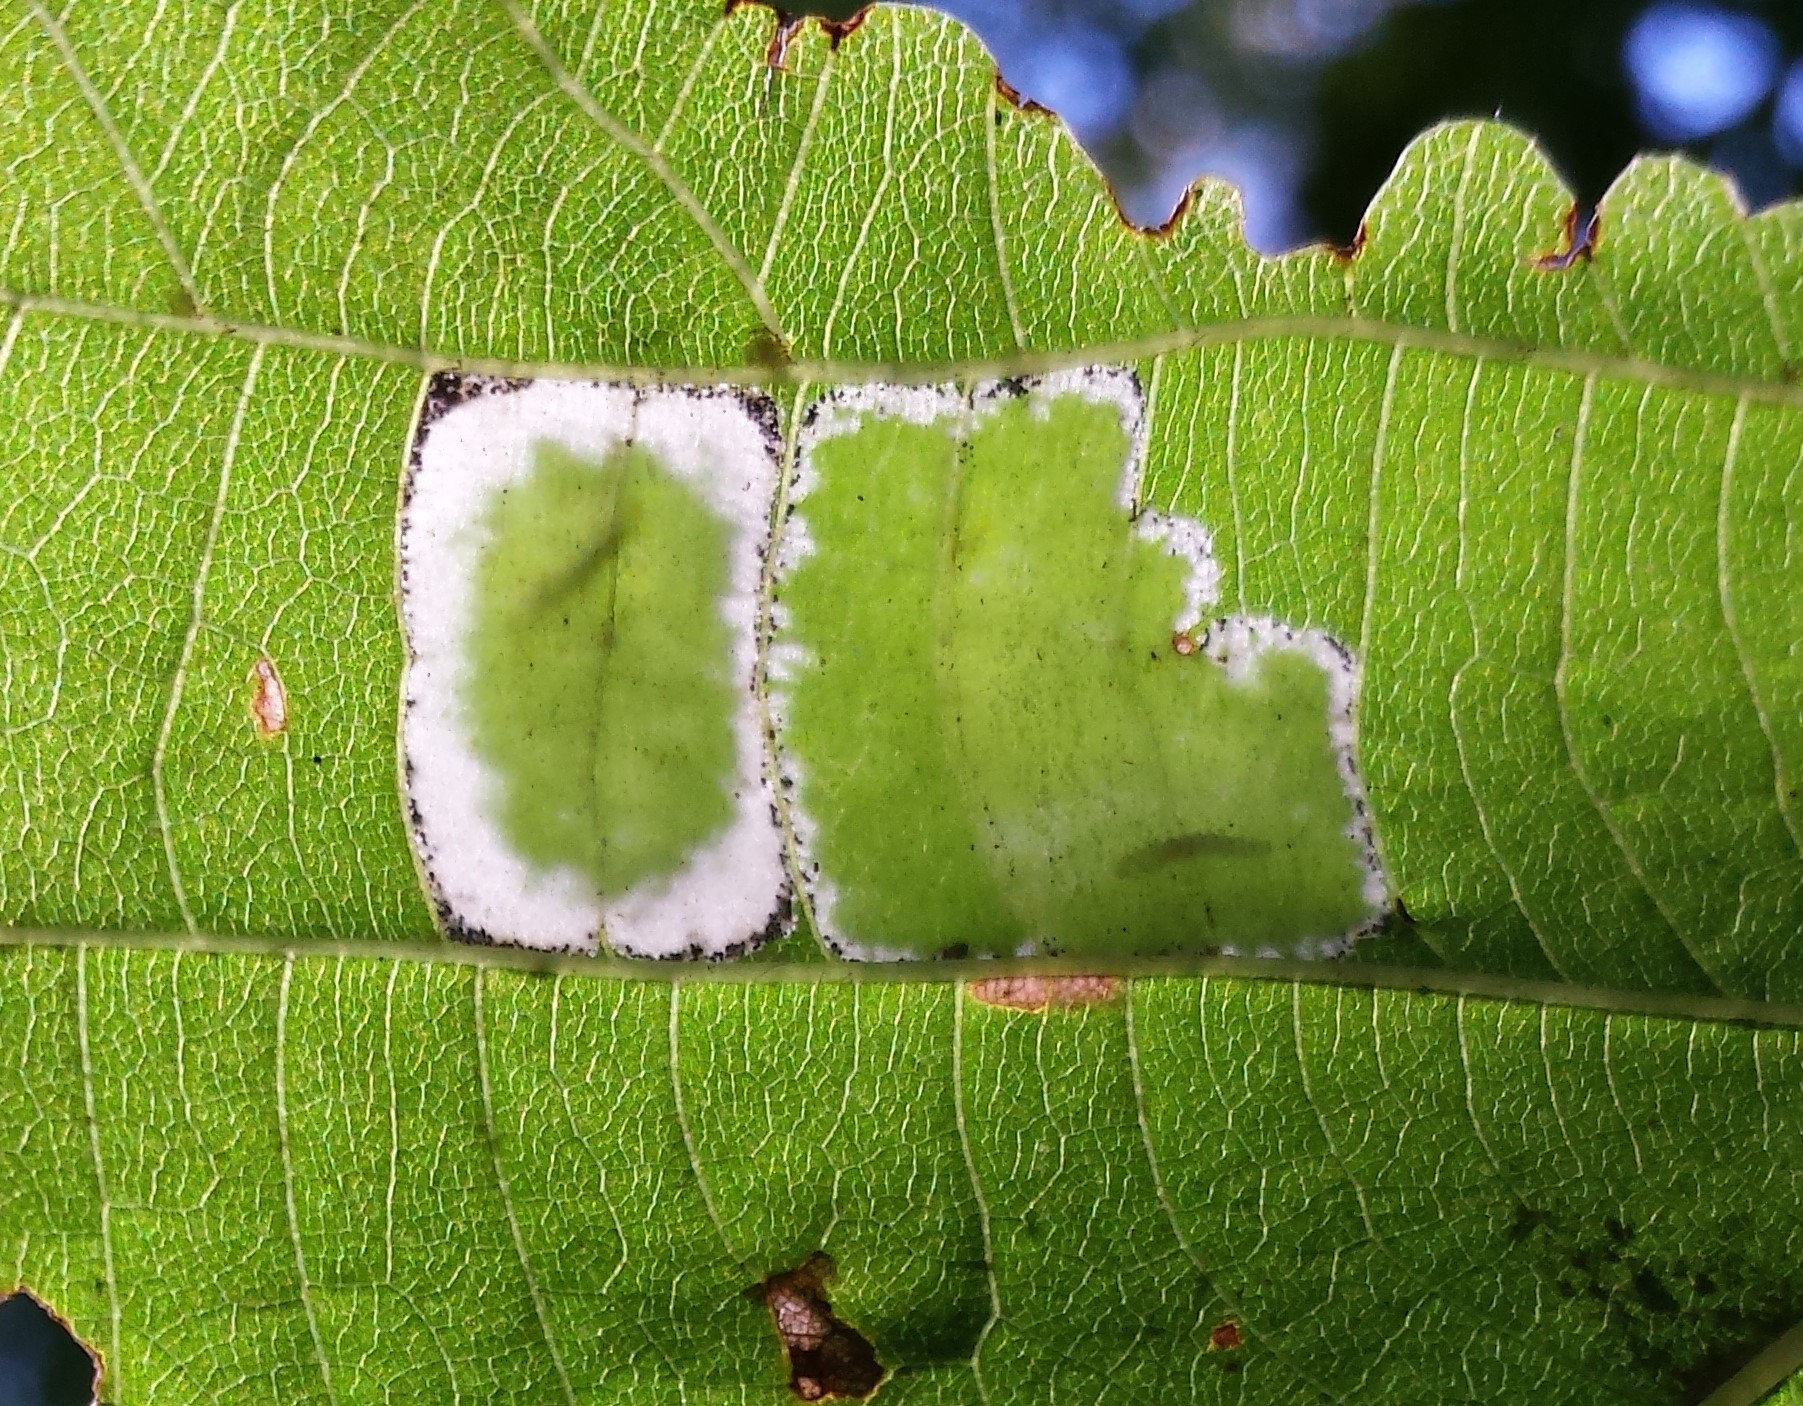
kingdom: Animalia
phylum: Arthropoda
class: Insecta
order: Lepidoptera
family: Gracillariidae
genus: Phyllonorycter
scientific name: Phyllonorycter lucetiella
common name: Basswood miner moth
